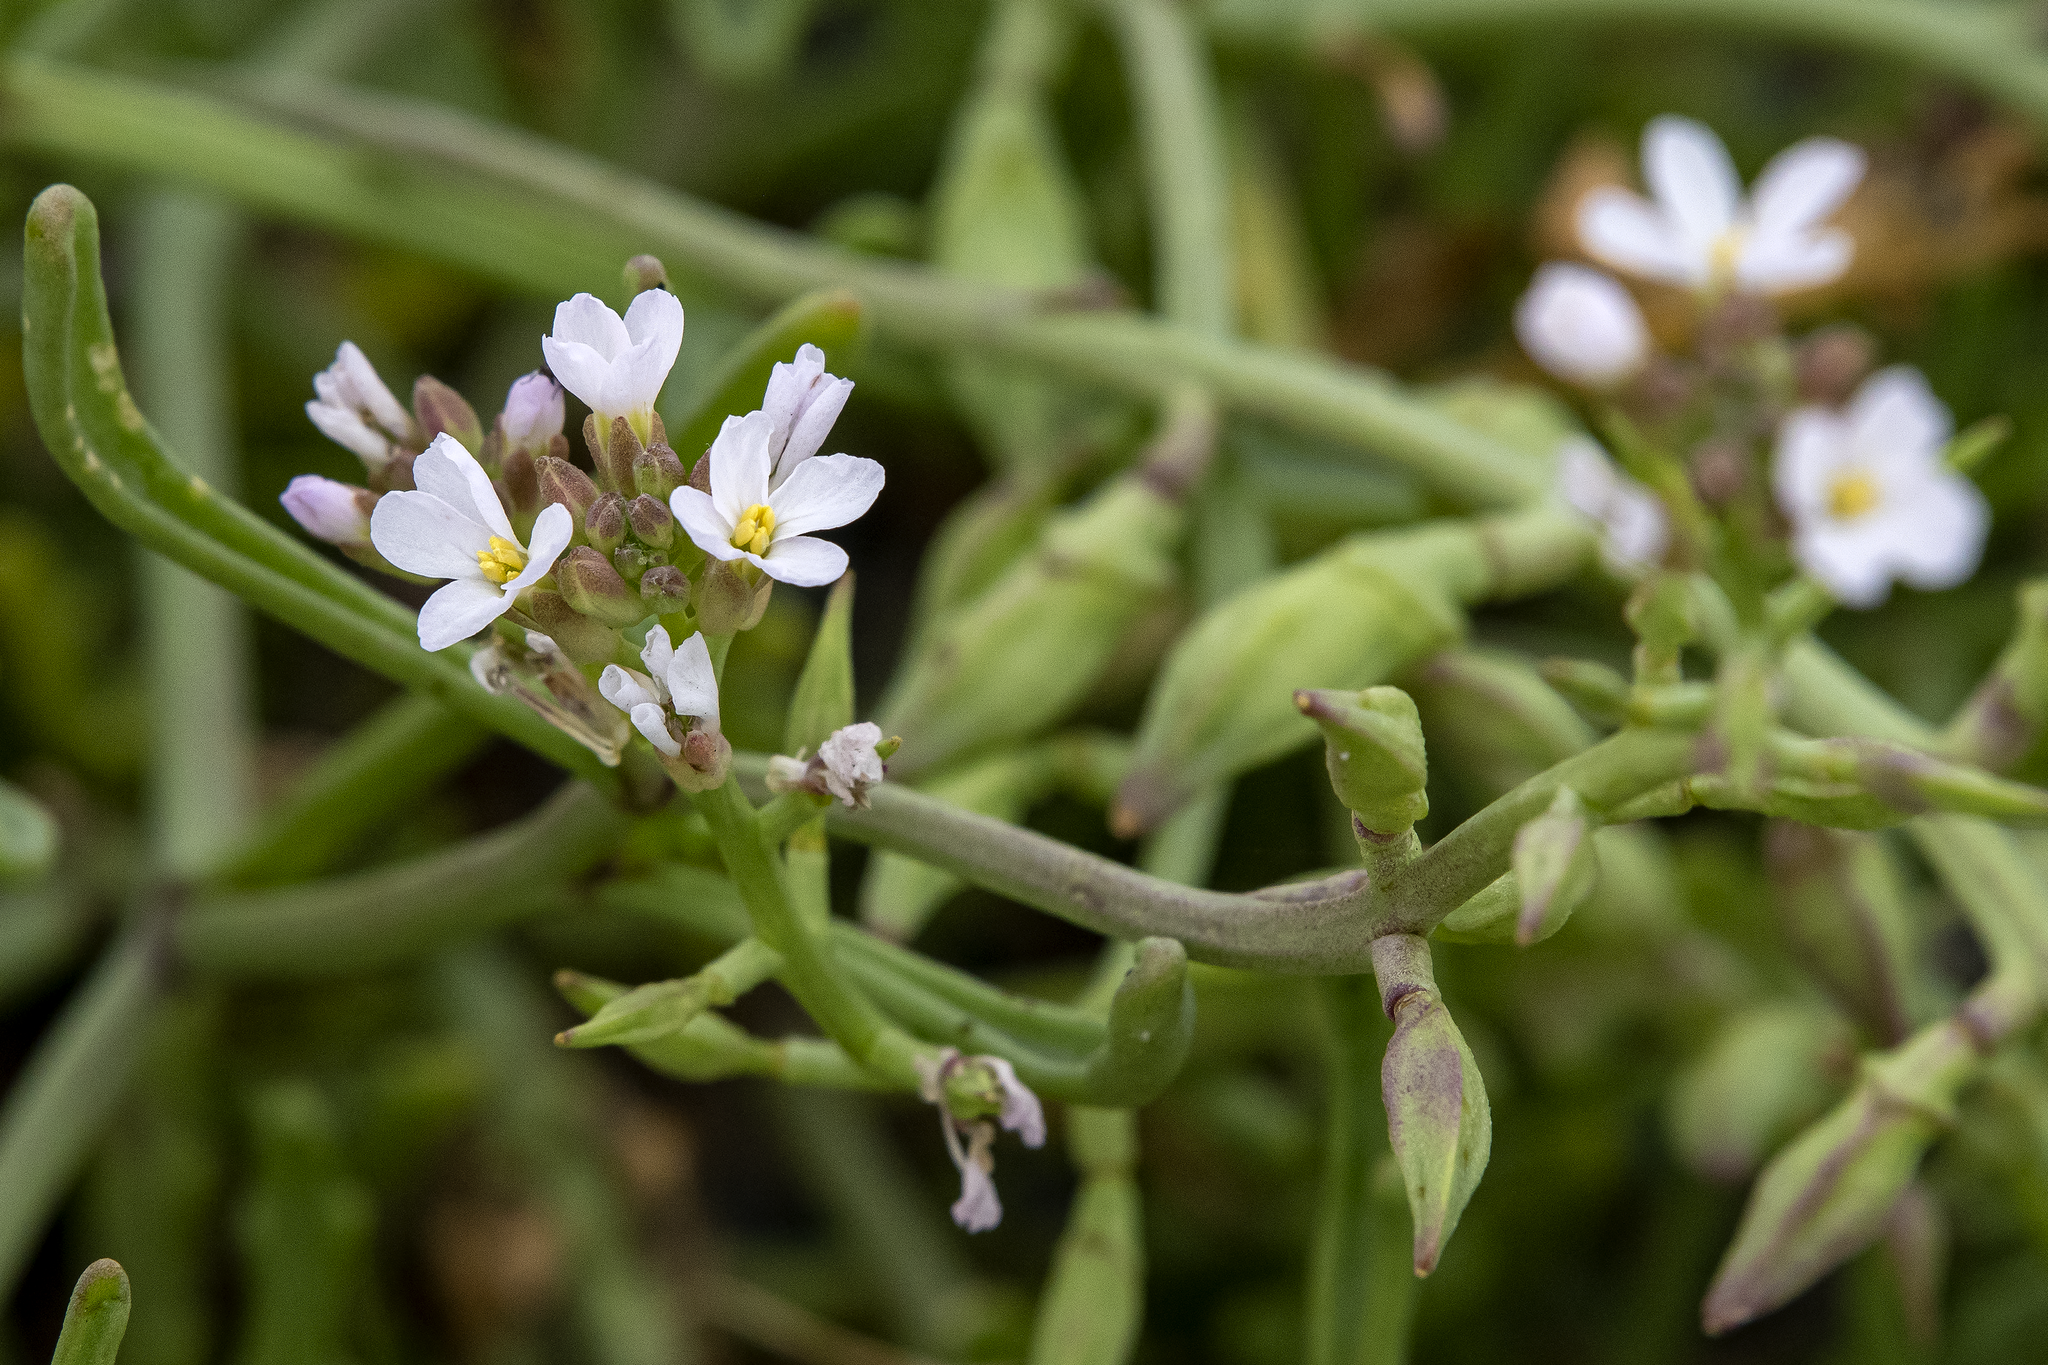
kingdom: Plantae
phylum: Tracheophyta
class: Magnoliopsida
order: Brassicales
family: Brassicaceae
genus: Cakile
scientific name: Cakile maritima
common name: Sea rocket
